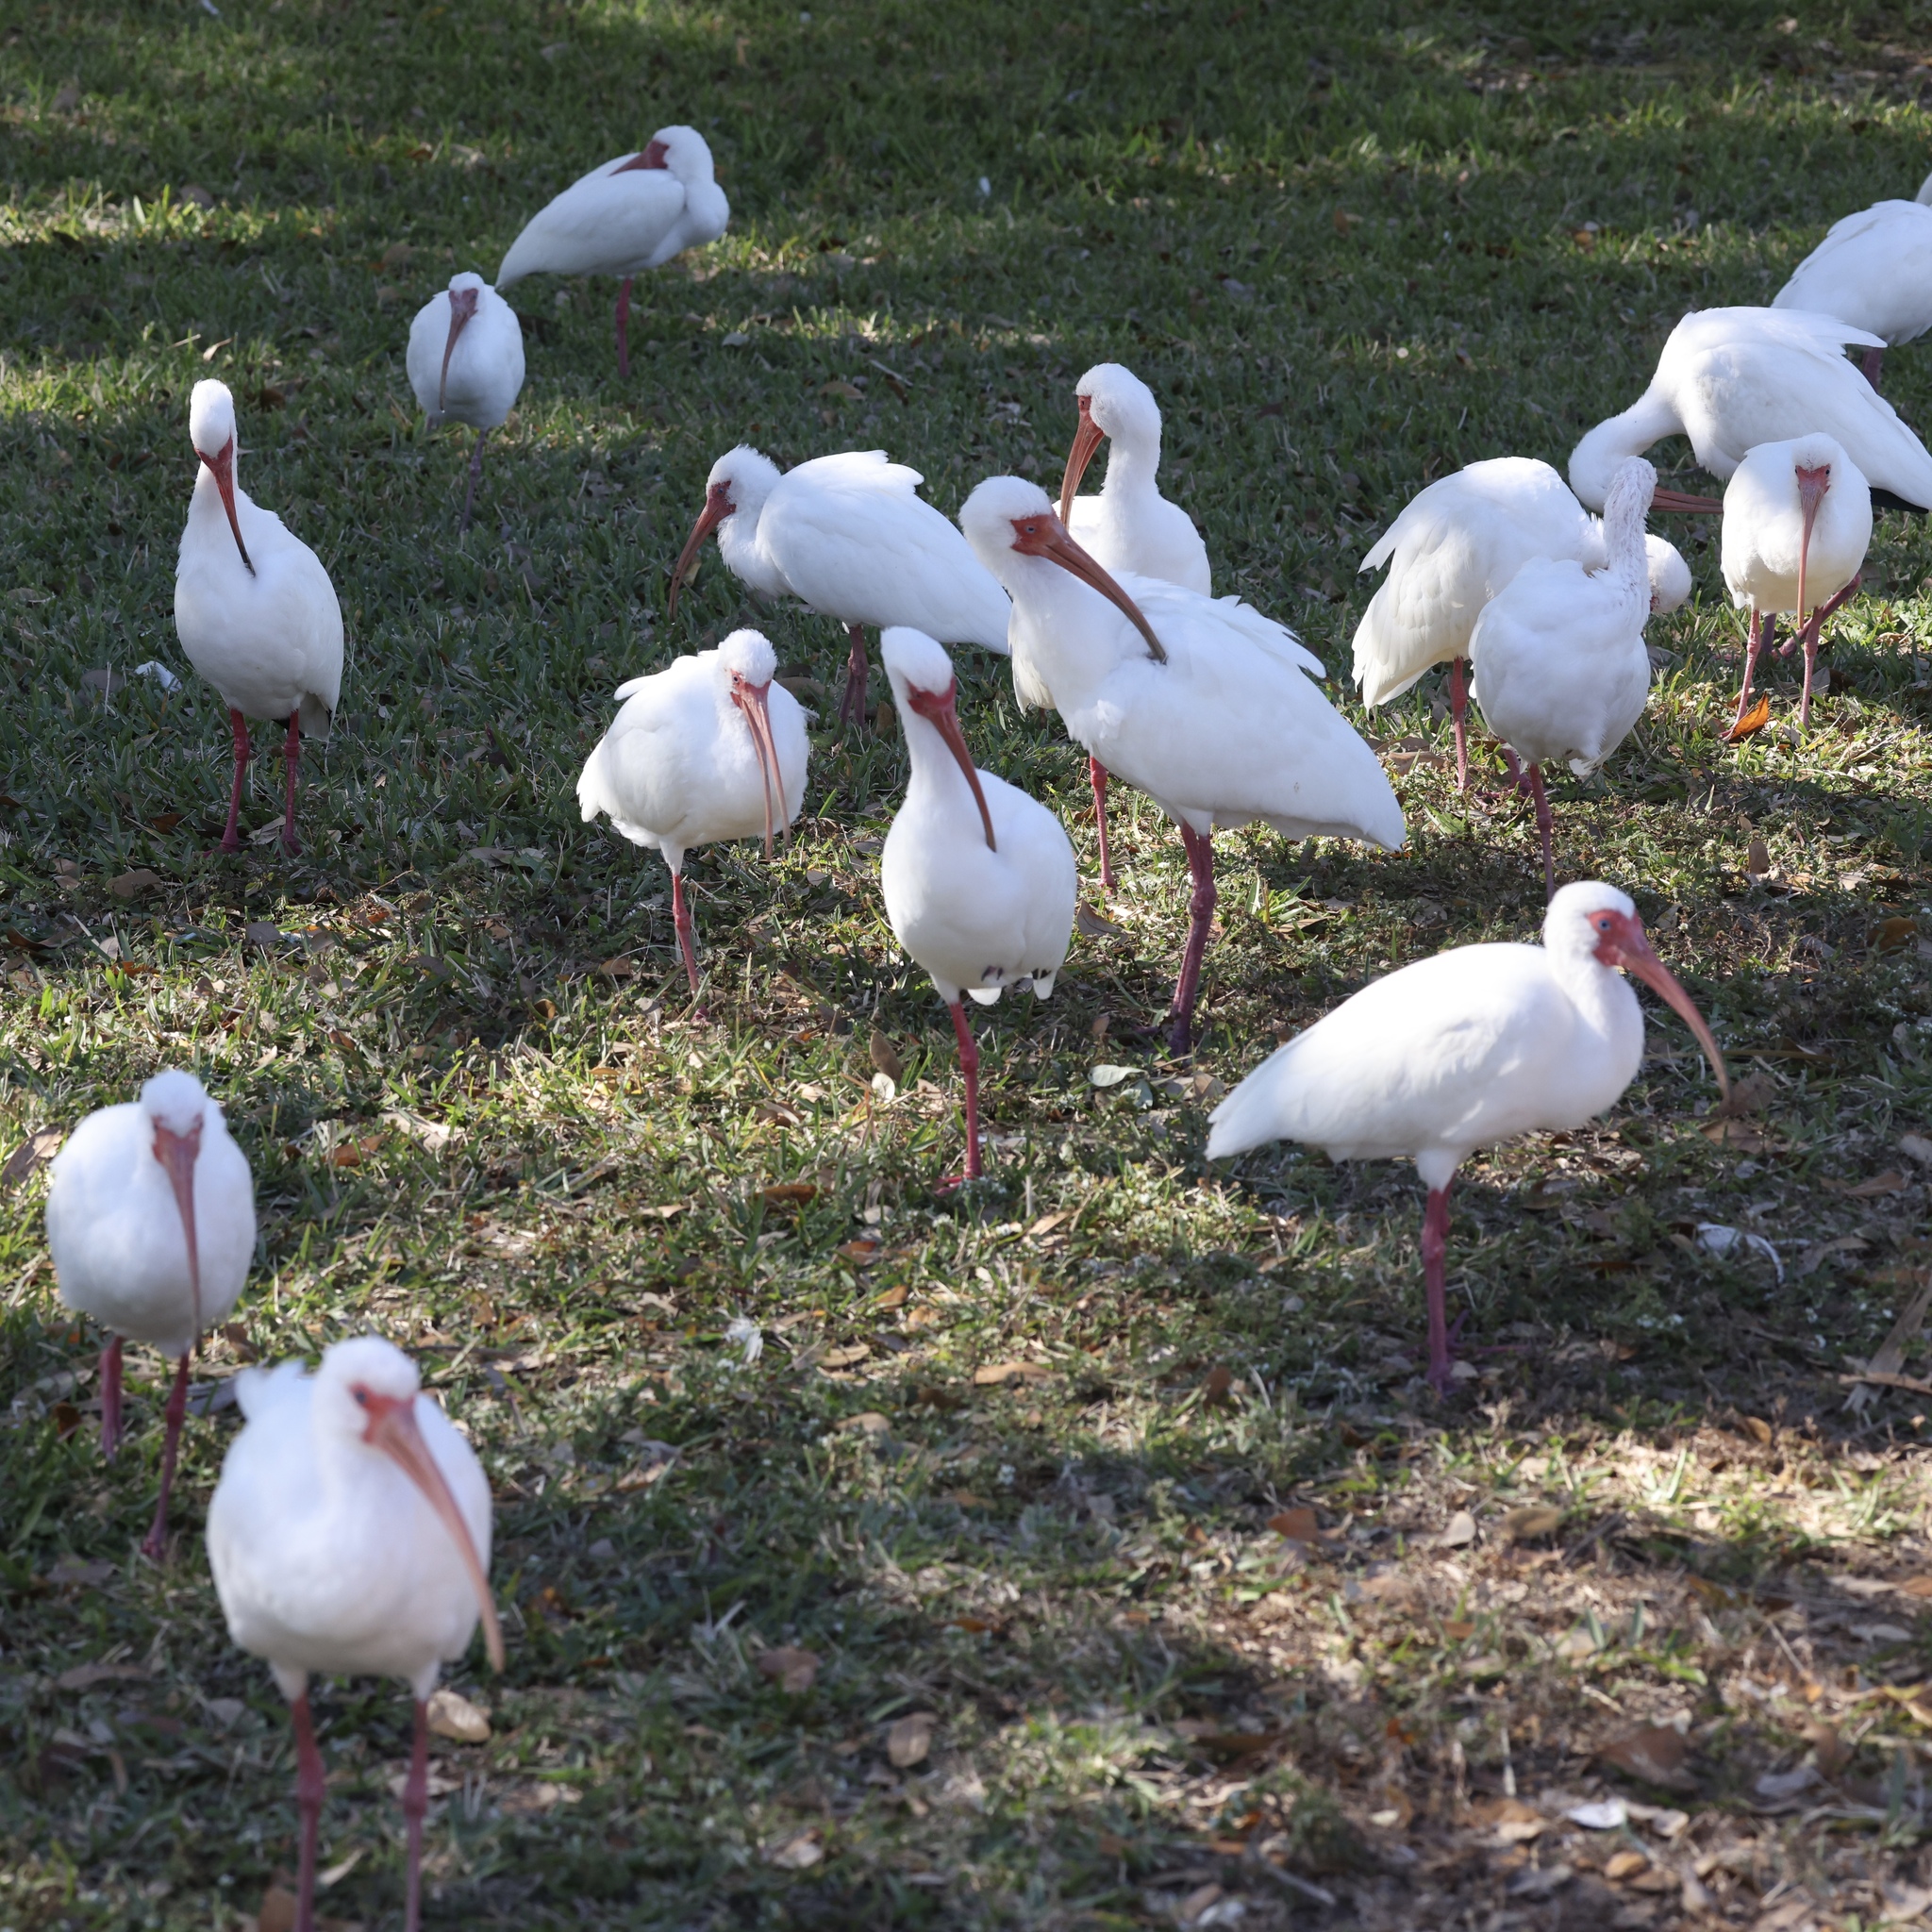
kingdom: Animalia
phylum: Chordata
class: Aves
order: Pelecaniformes
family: Threskiornithidae
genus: Eudocimus
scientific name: Eudocimus albus
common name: White ibis
